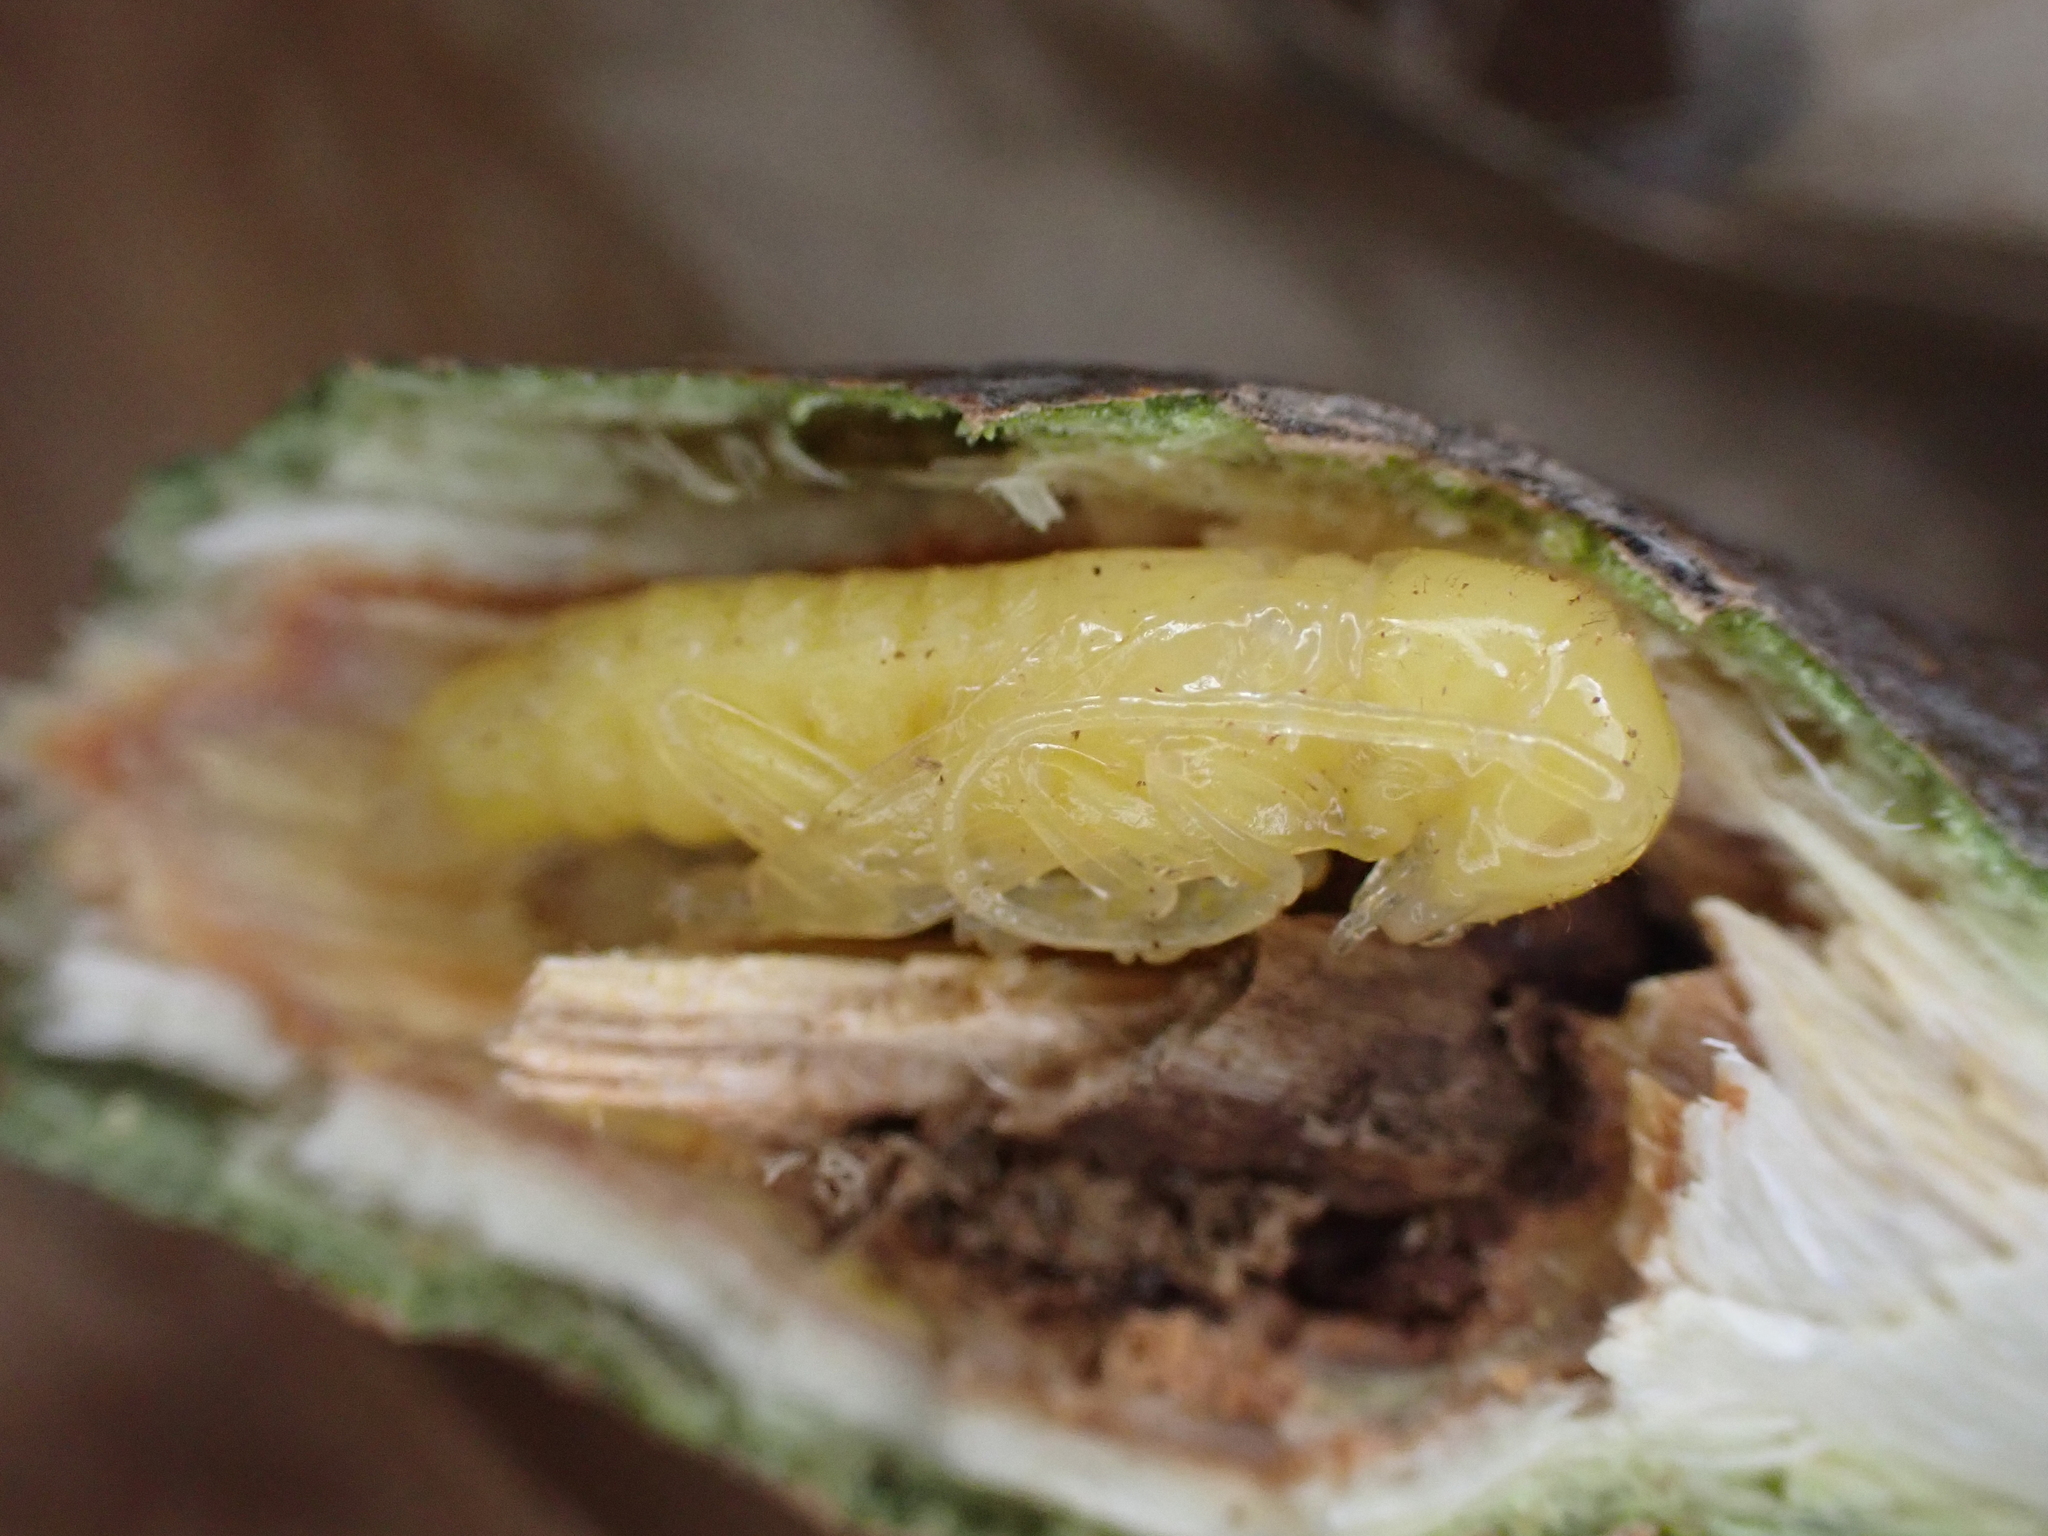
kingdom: Animalia
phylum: Arthropoda
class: Insecta
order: Coleoptera
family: Cerambycidae
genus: Saperda
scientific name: Saperda populnea
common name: Small poplar borer
